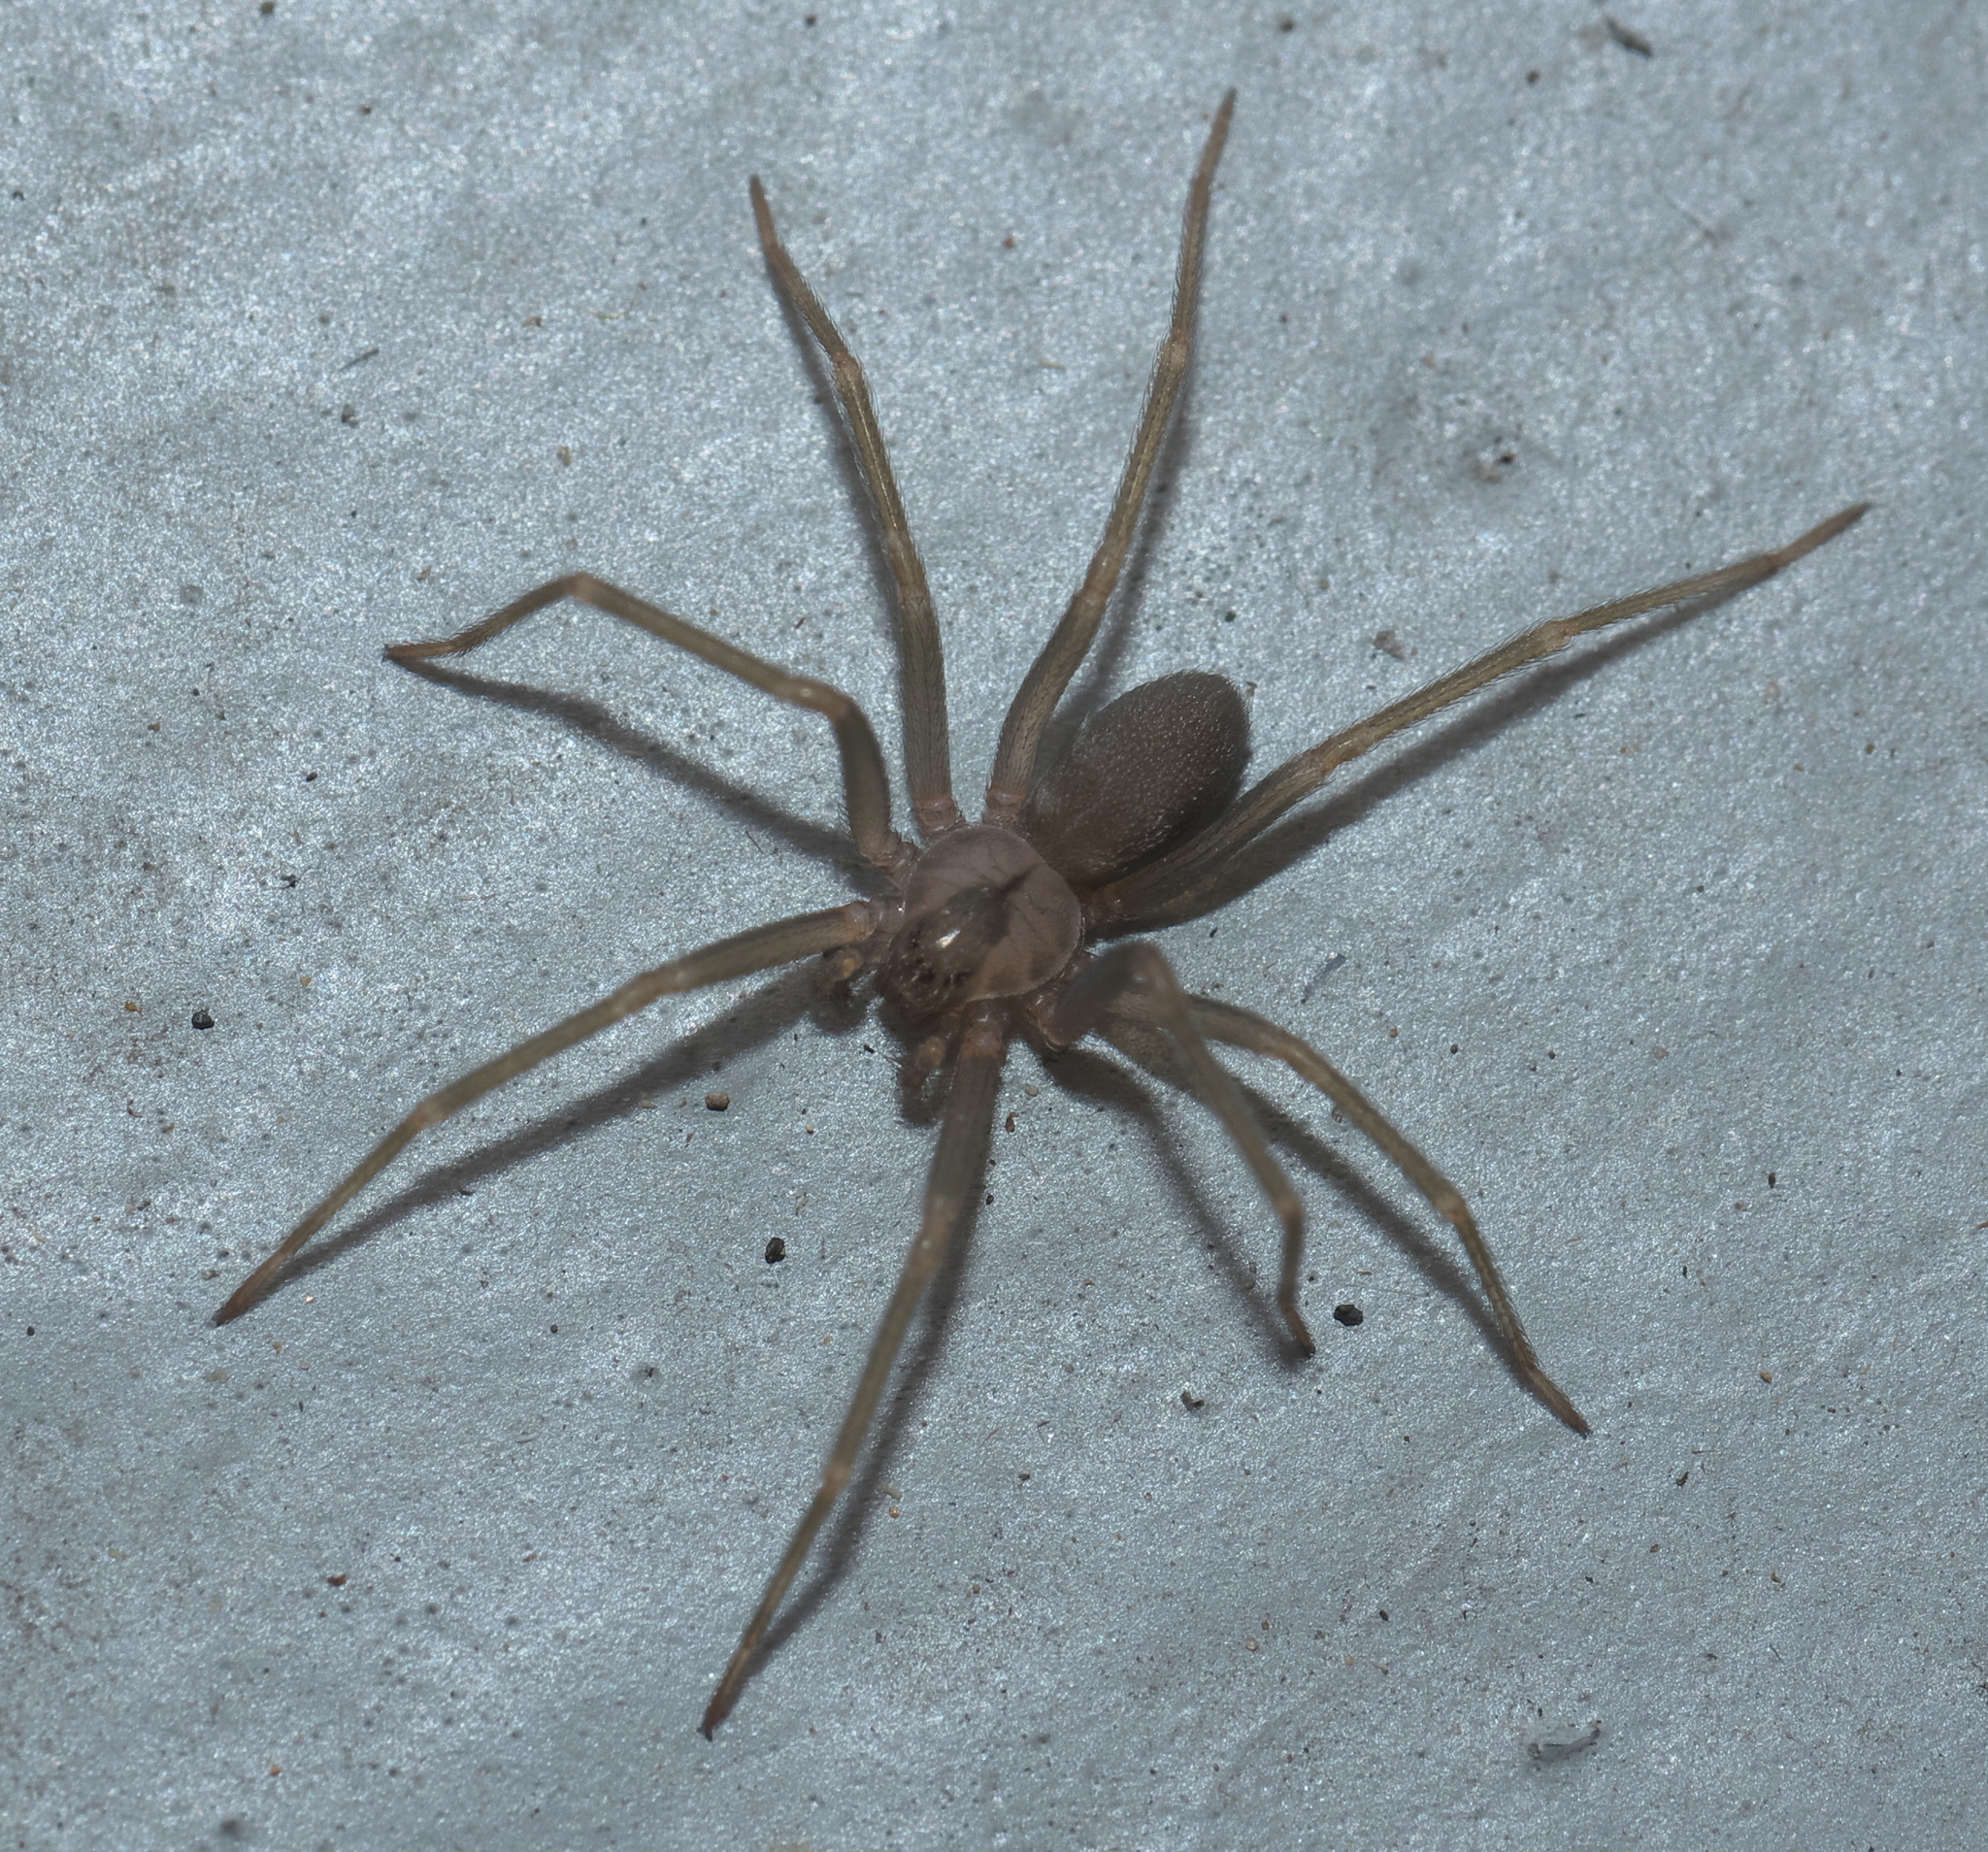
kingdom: Animalia
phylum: Arthropoda
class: Arachnida
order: Araneae
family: Sicariidae
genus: Loxosceles
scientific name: Loxosceles reclusa
